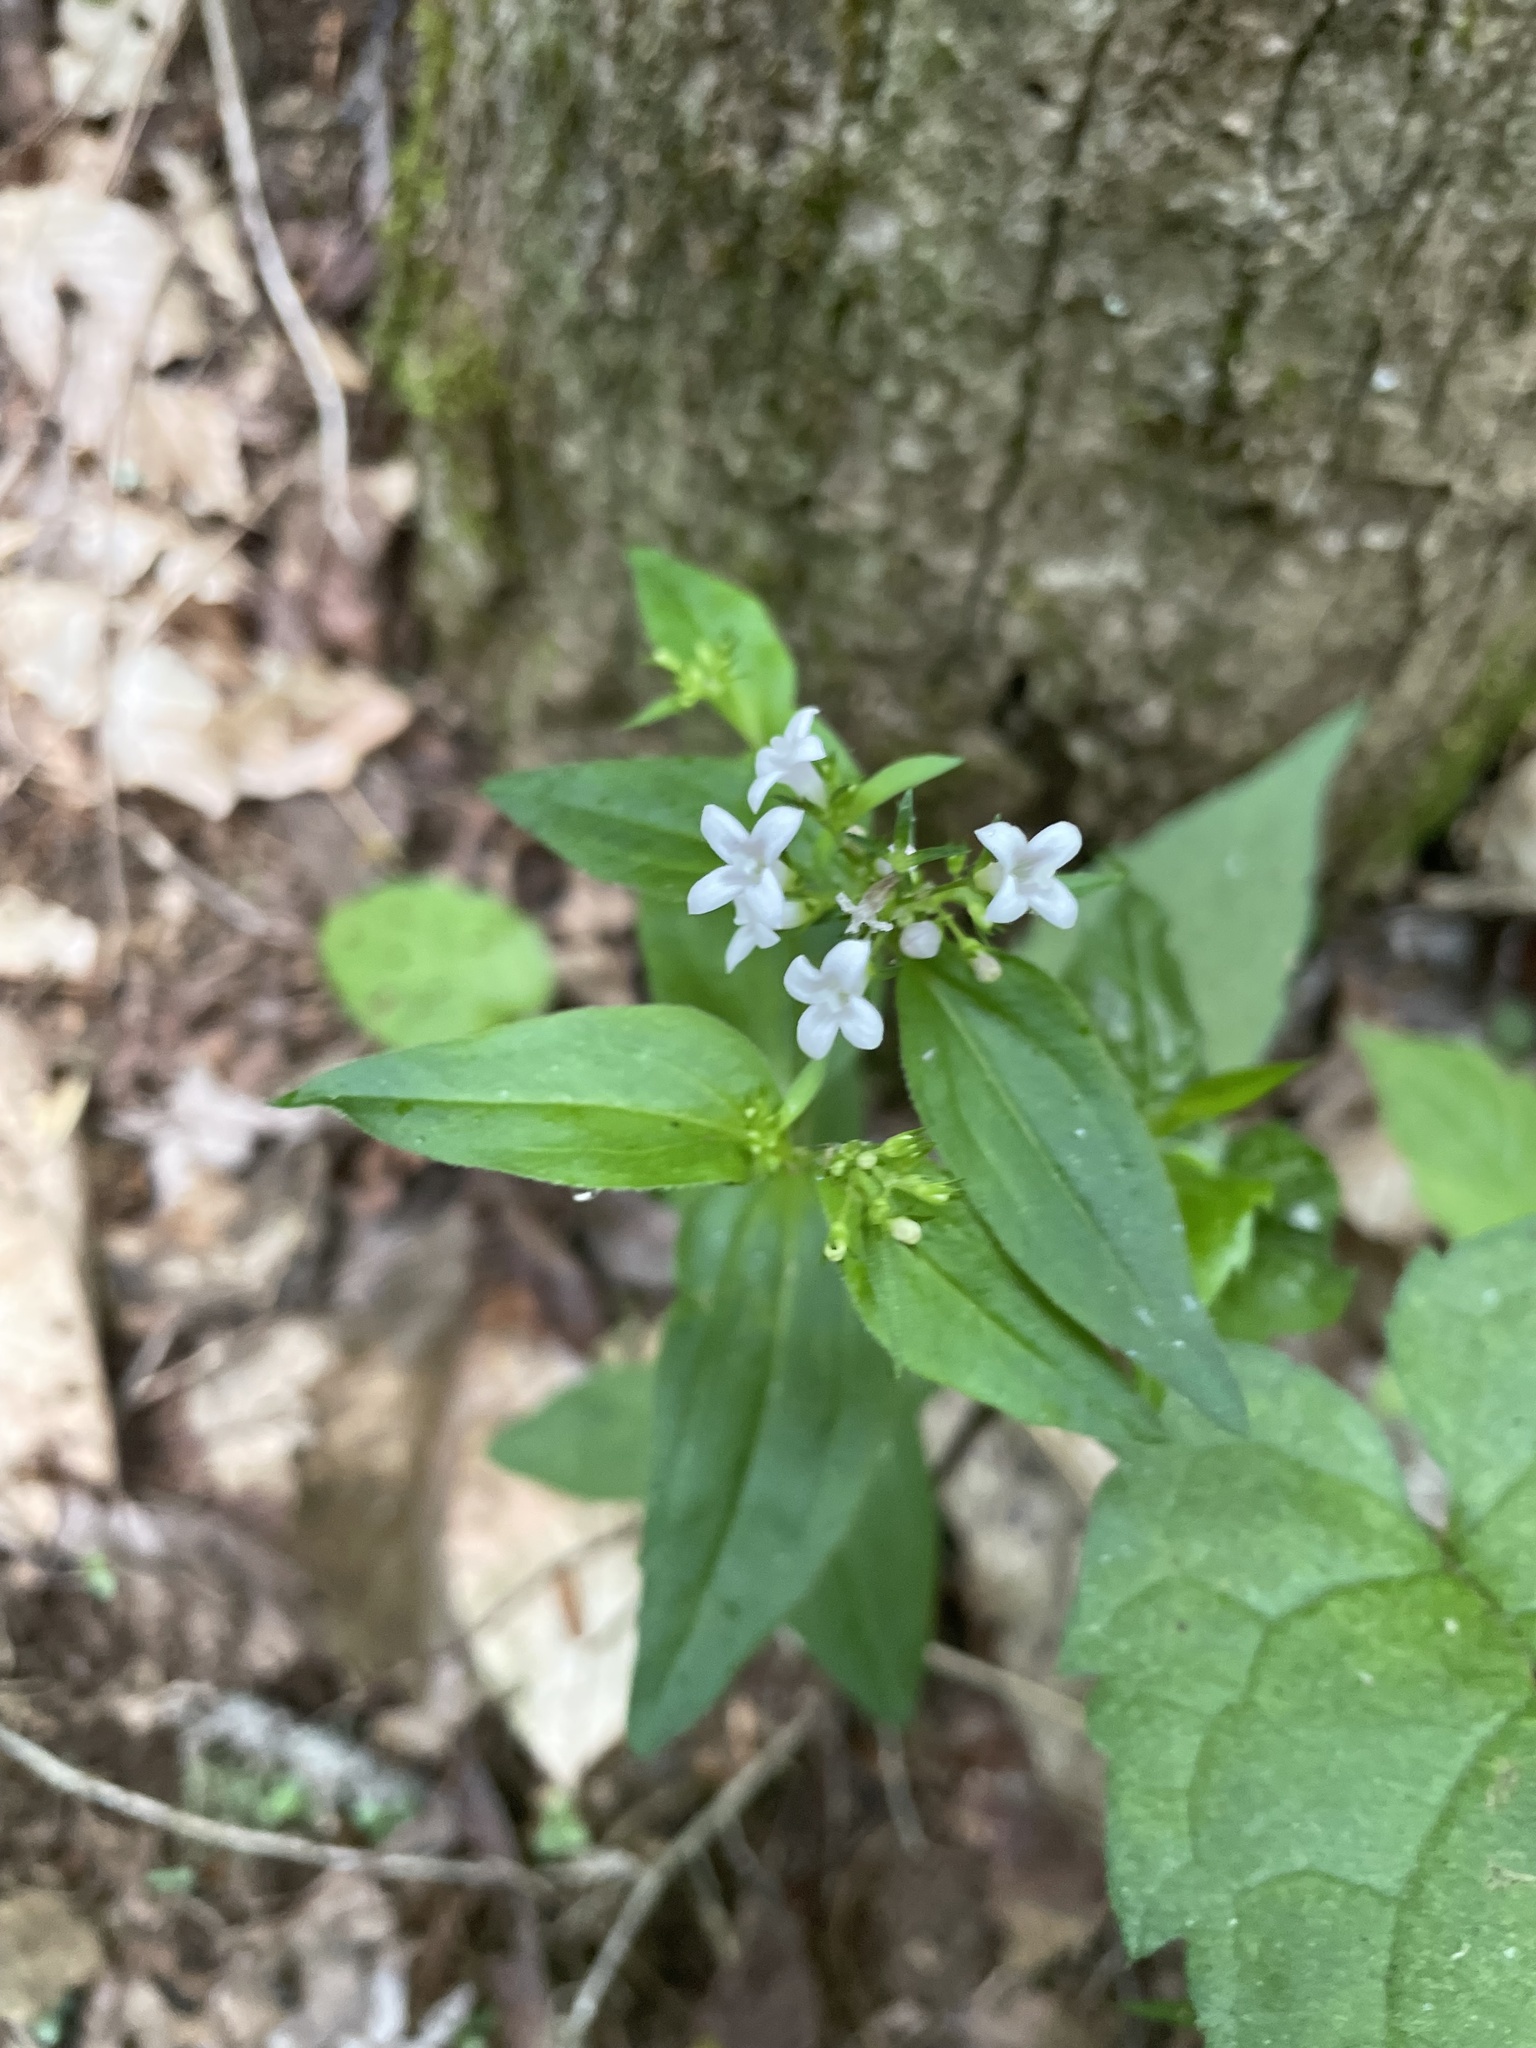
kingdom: Plantae
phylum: Tracheophyta
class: Magnoliopsida
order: Gentianales
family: Rubiaceae
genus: Houstonia
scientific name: Houstonia purpurea
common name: Summer bluet
